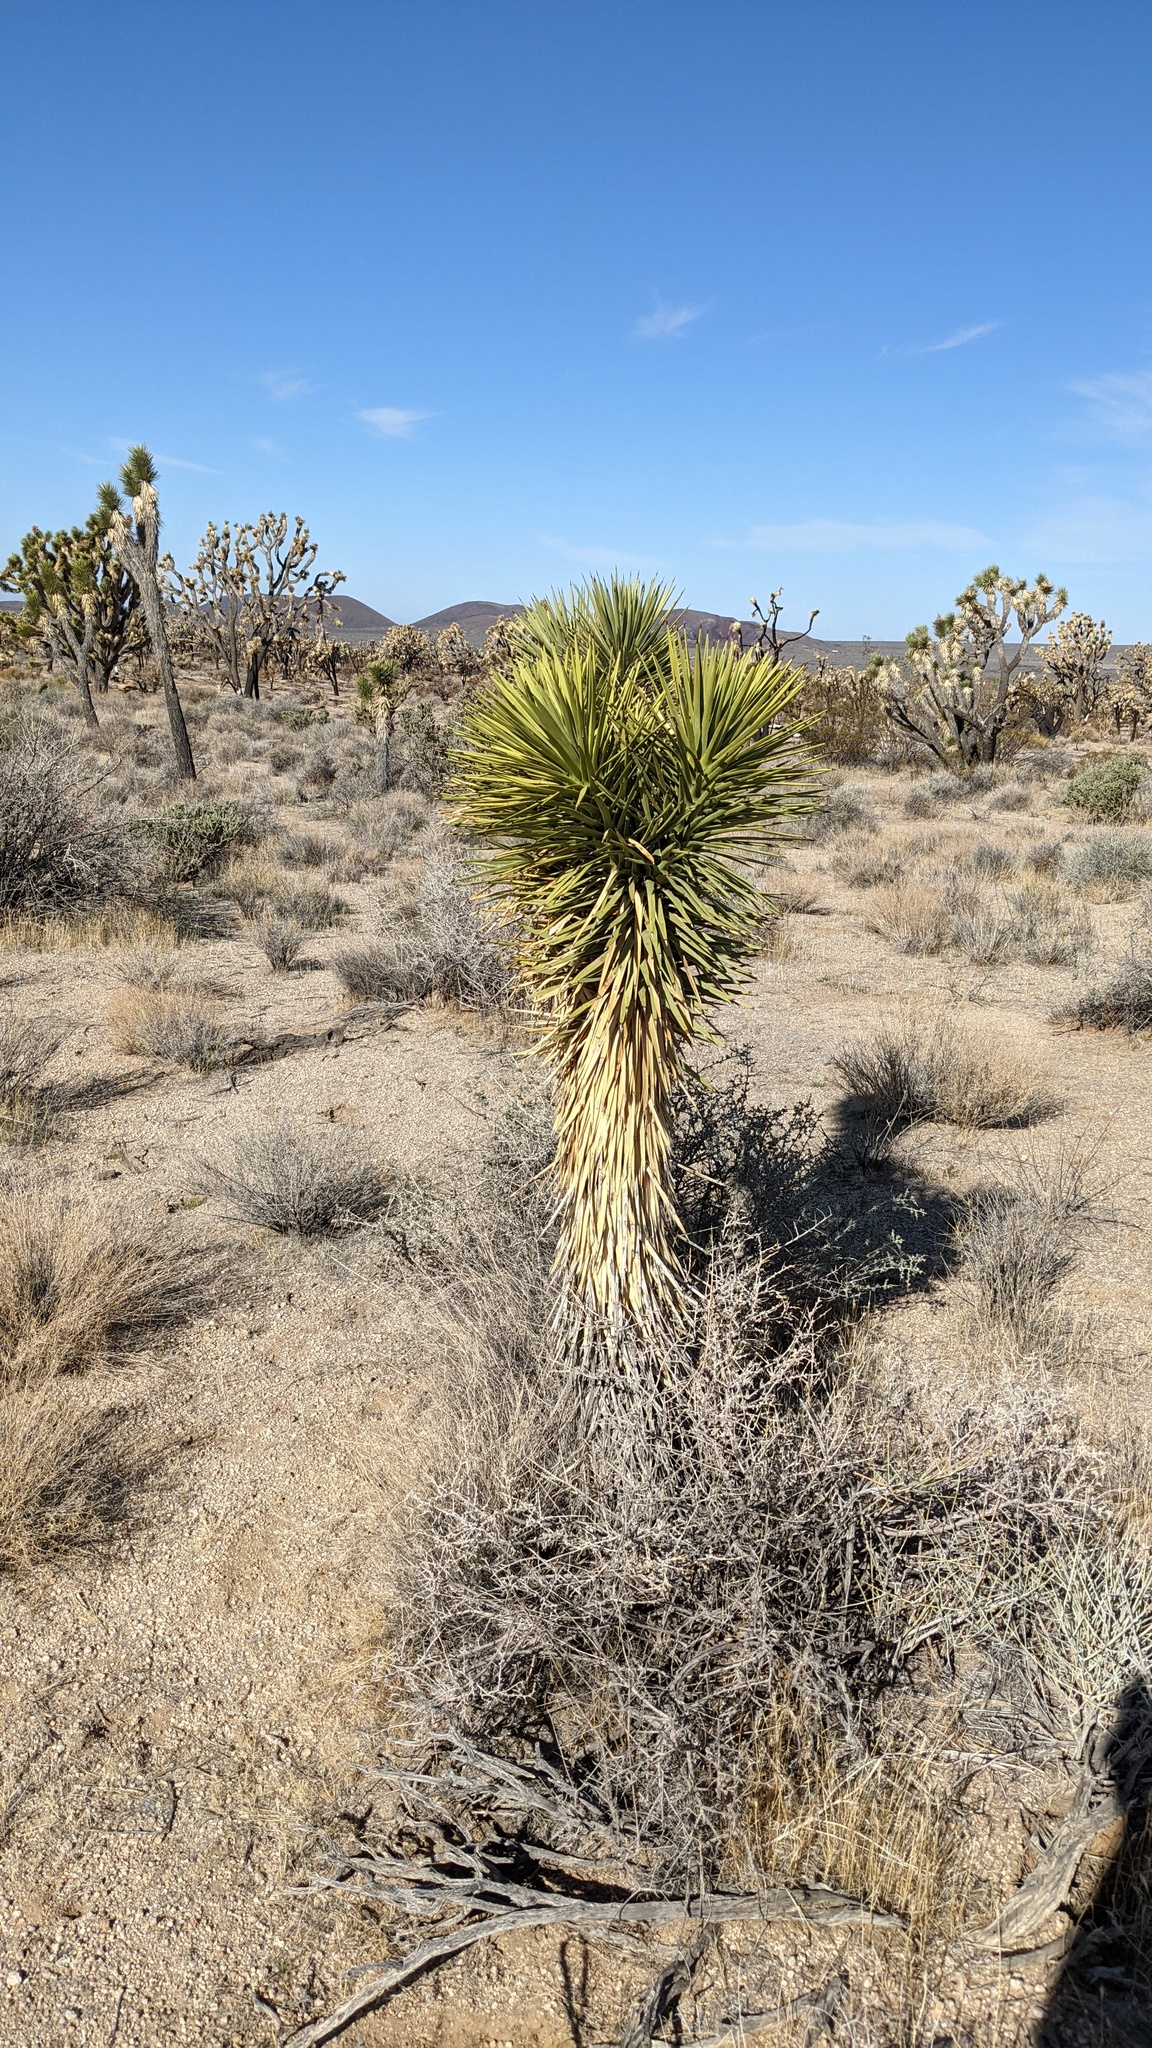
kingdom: Plantae
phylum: Tracheophyta
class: Liliopsida
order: Asparagales
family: Asparagaceae
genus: Yucca
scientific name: Yucca brevifolia
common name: Joshua tree
